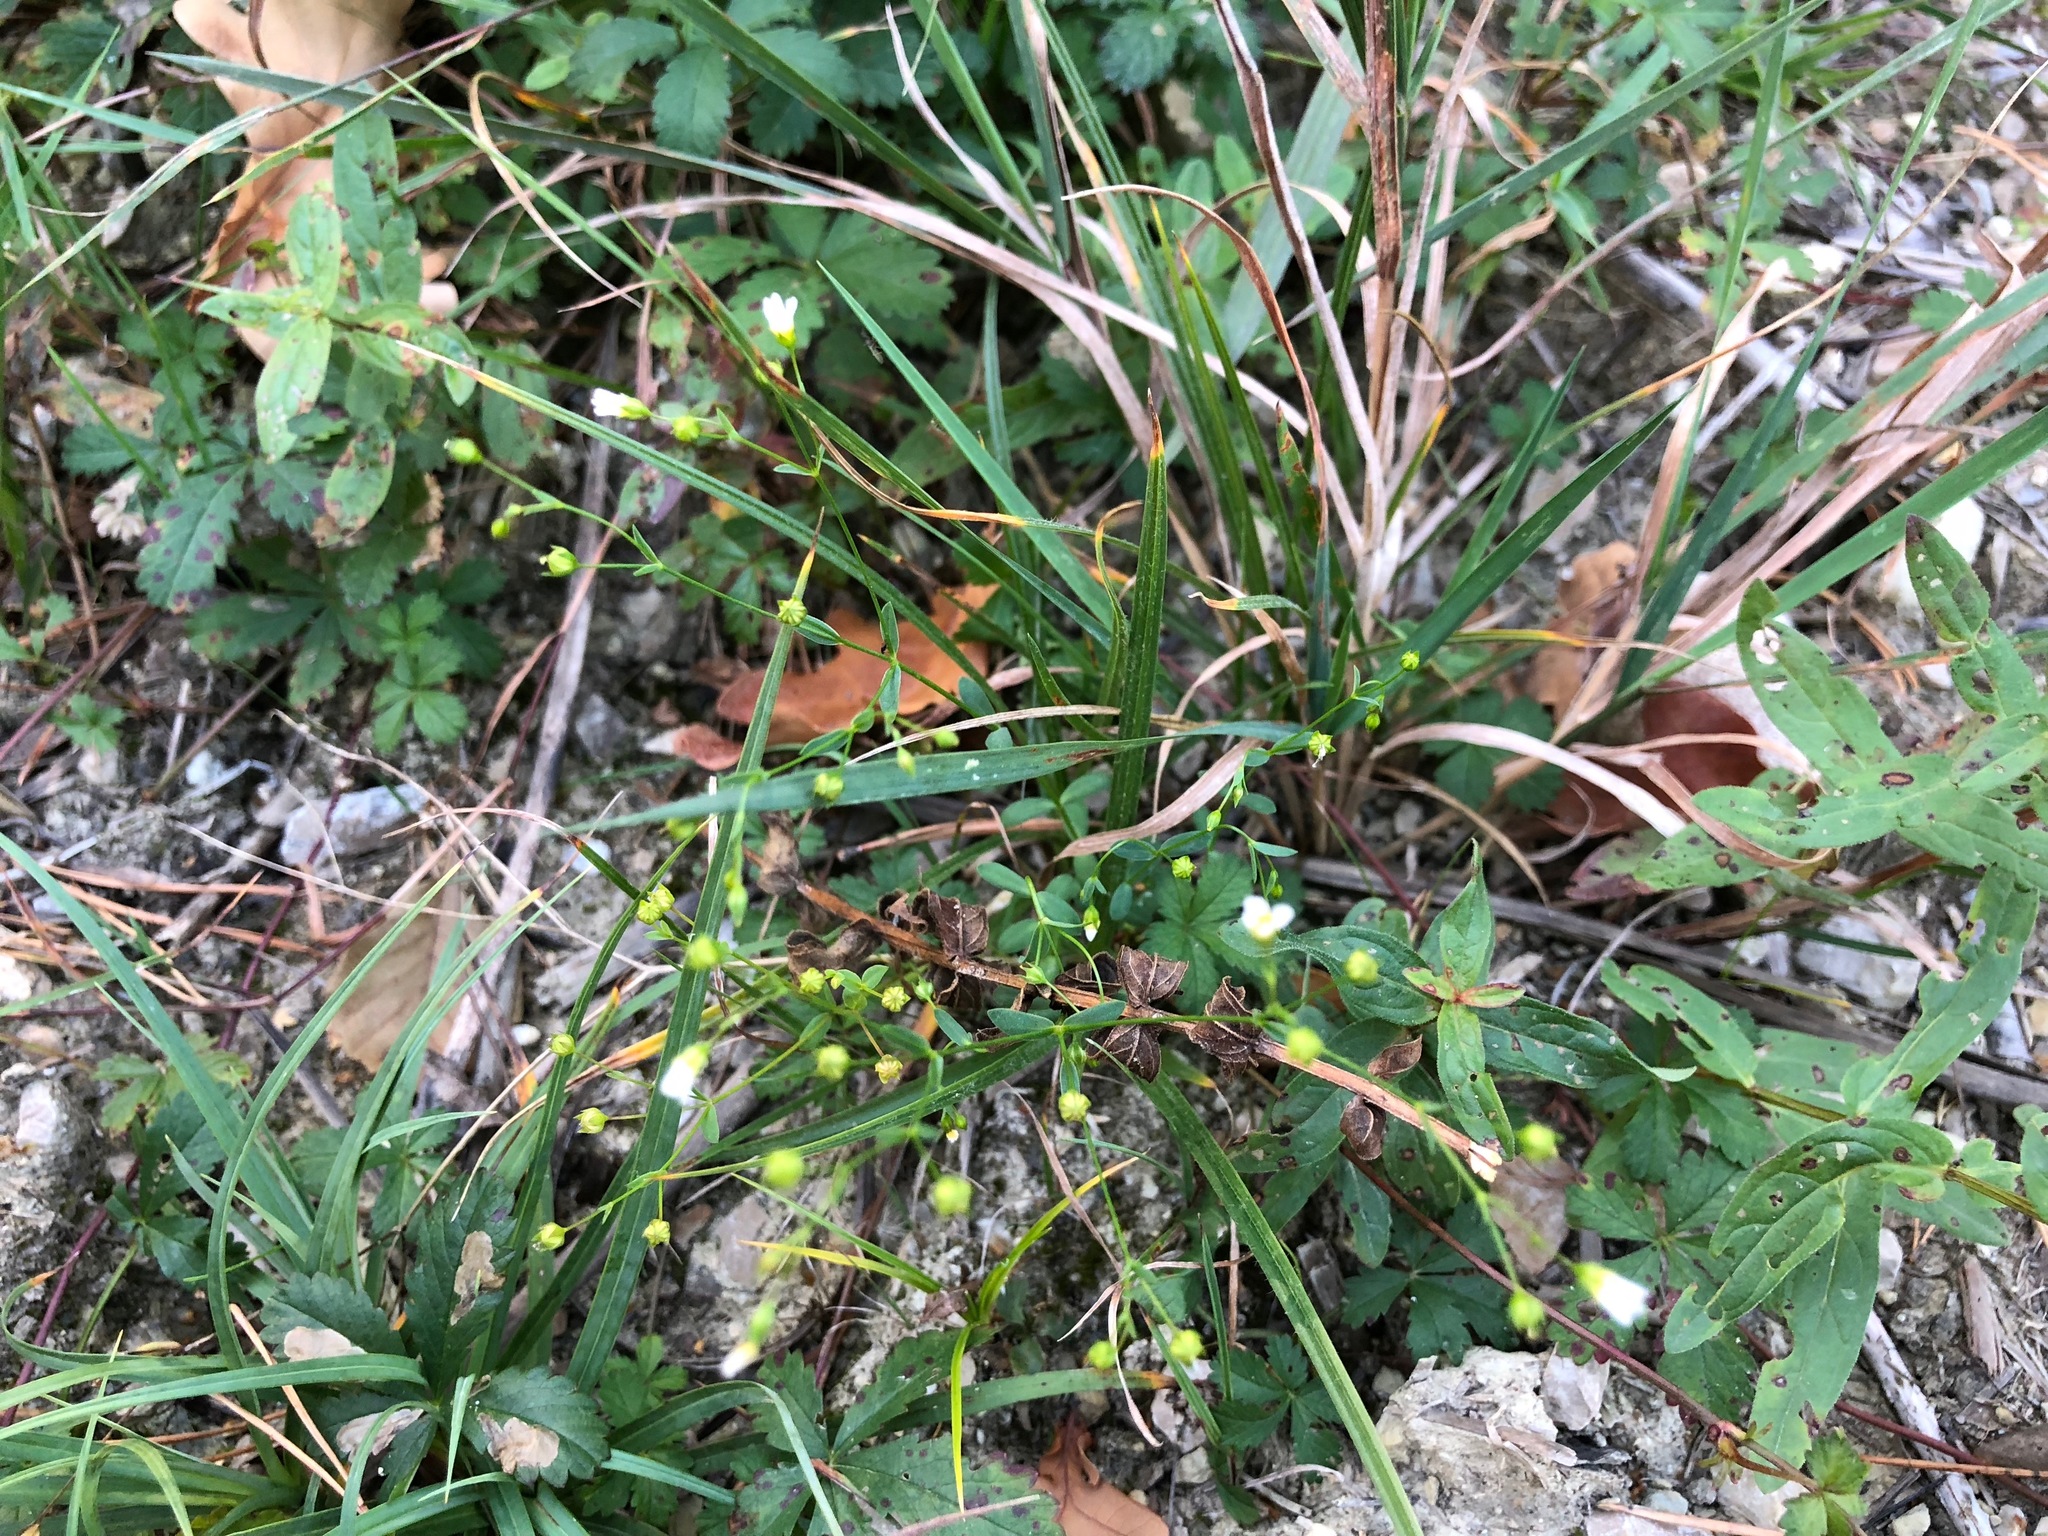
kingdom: Plantae
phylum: Tracheophyta
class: Magnoliopsida
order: Malpighiales
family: Linaceae
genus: Linum
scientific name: Linum catharticum
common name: Fairy flax
